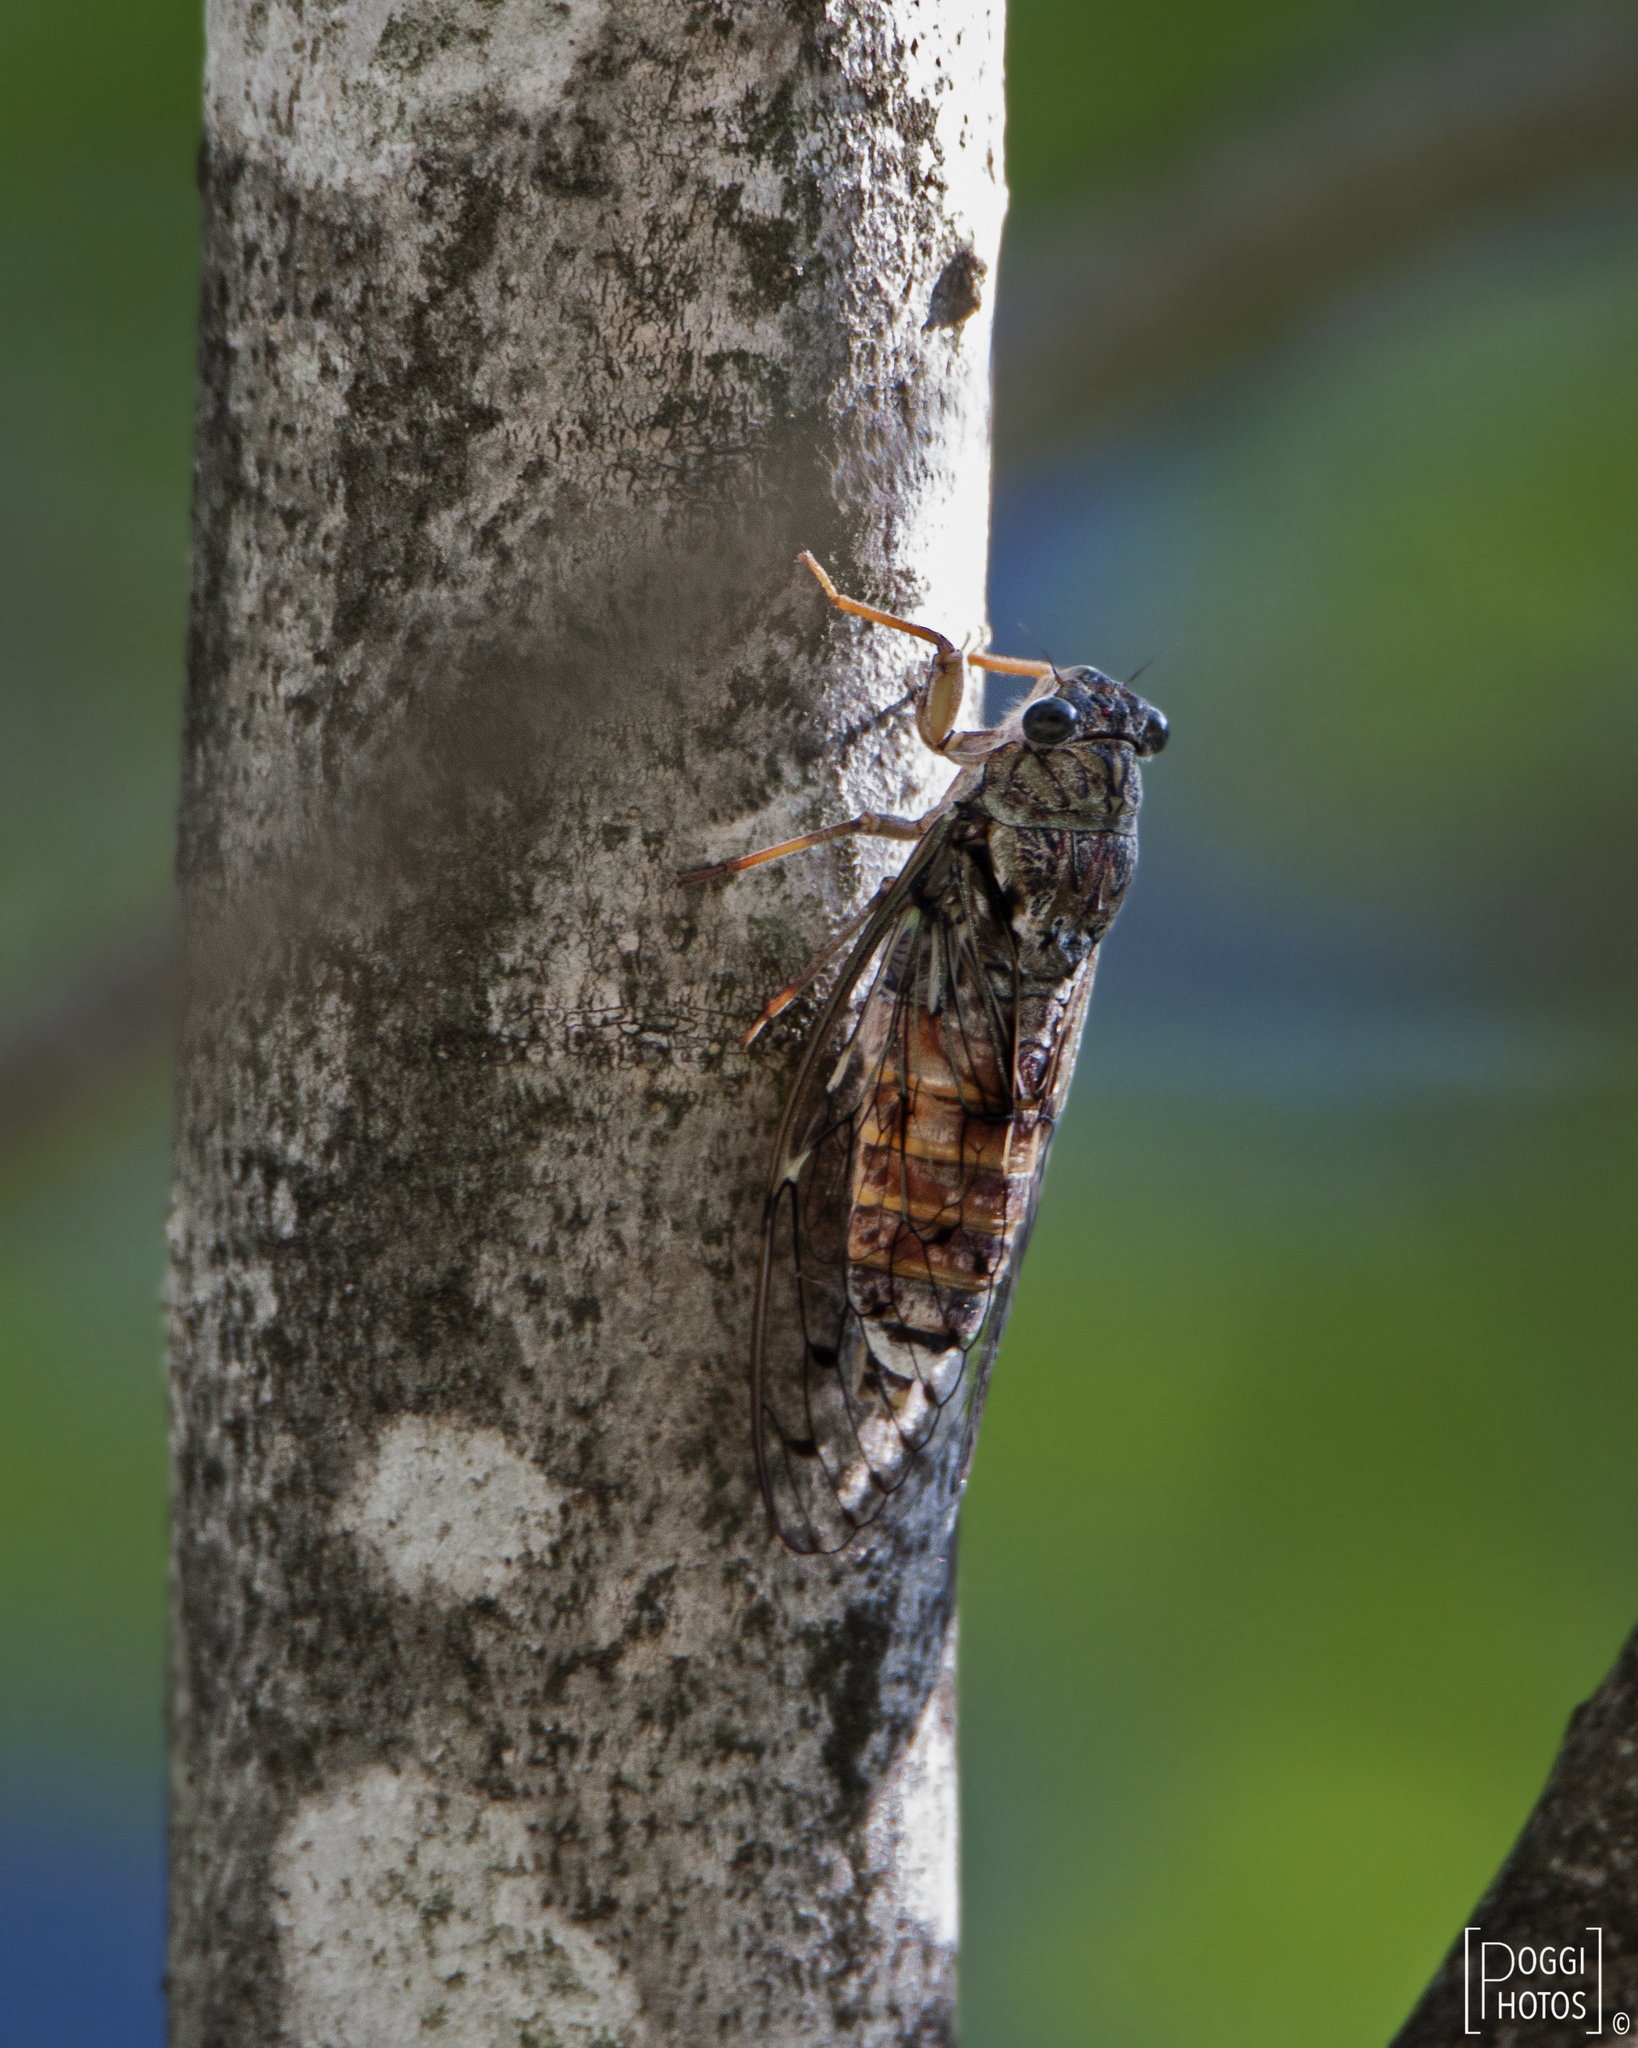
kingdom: Animalia
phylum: Arthropoda
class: Insecta
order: Hemiptera
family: Cicadidae
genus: Cicada
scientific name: Cicada orni
